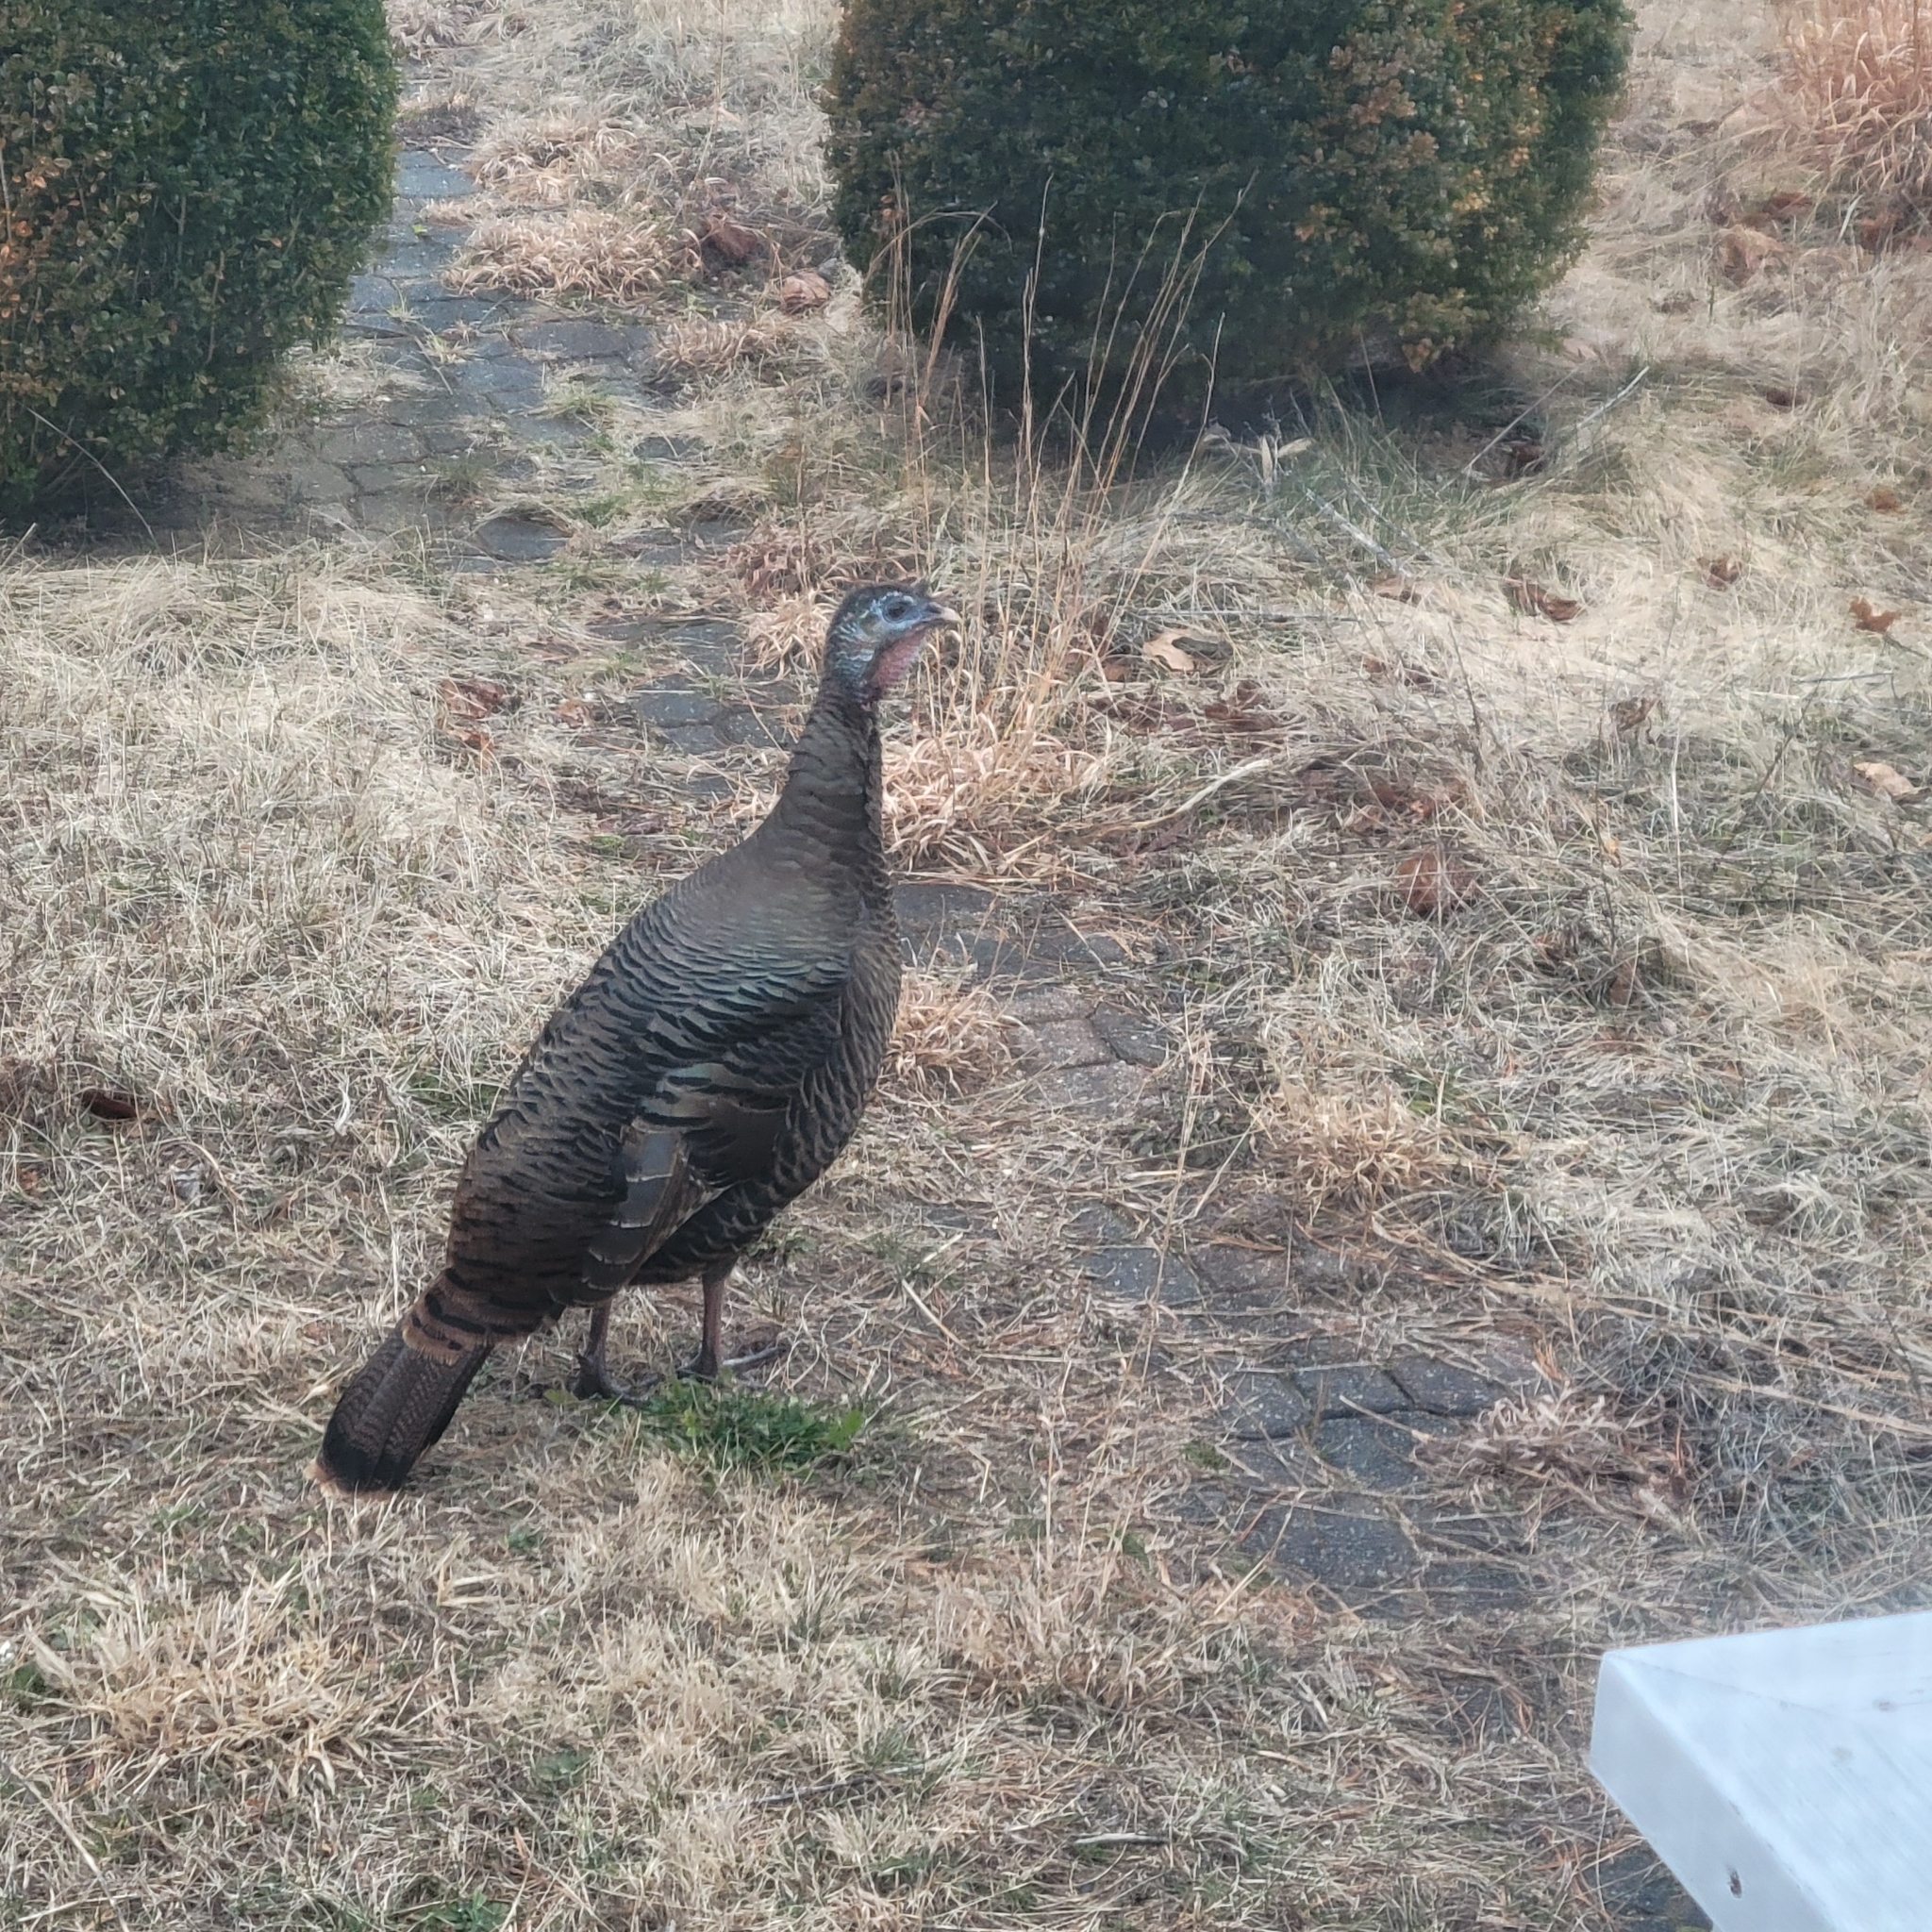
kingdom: Animalia
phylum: Chordata
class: Aves
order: Galliformes
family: Phasianidae
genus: Meleagris
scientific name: Meleagris gallopavo
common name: Wild turkey
